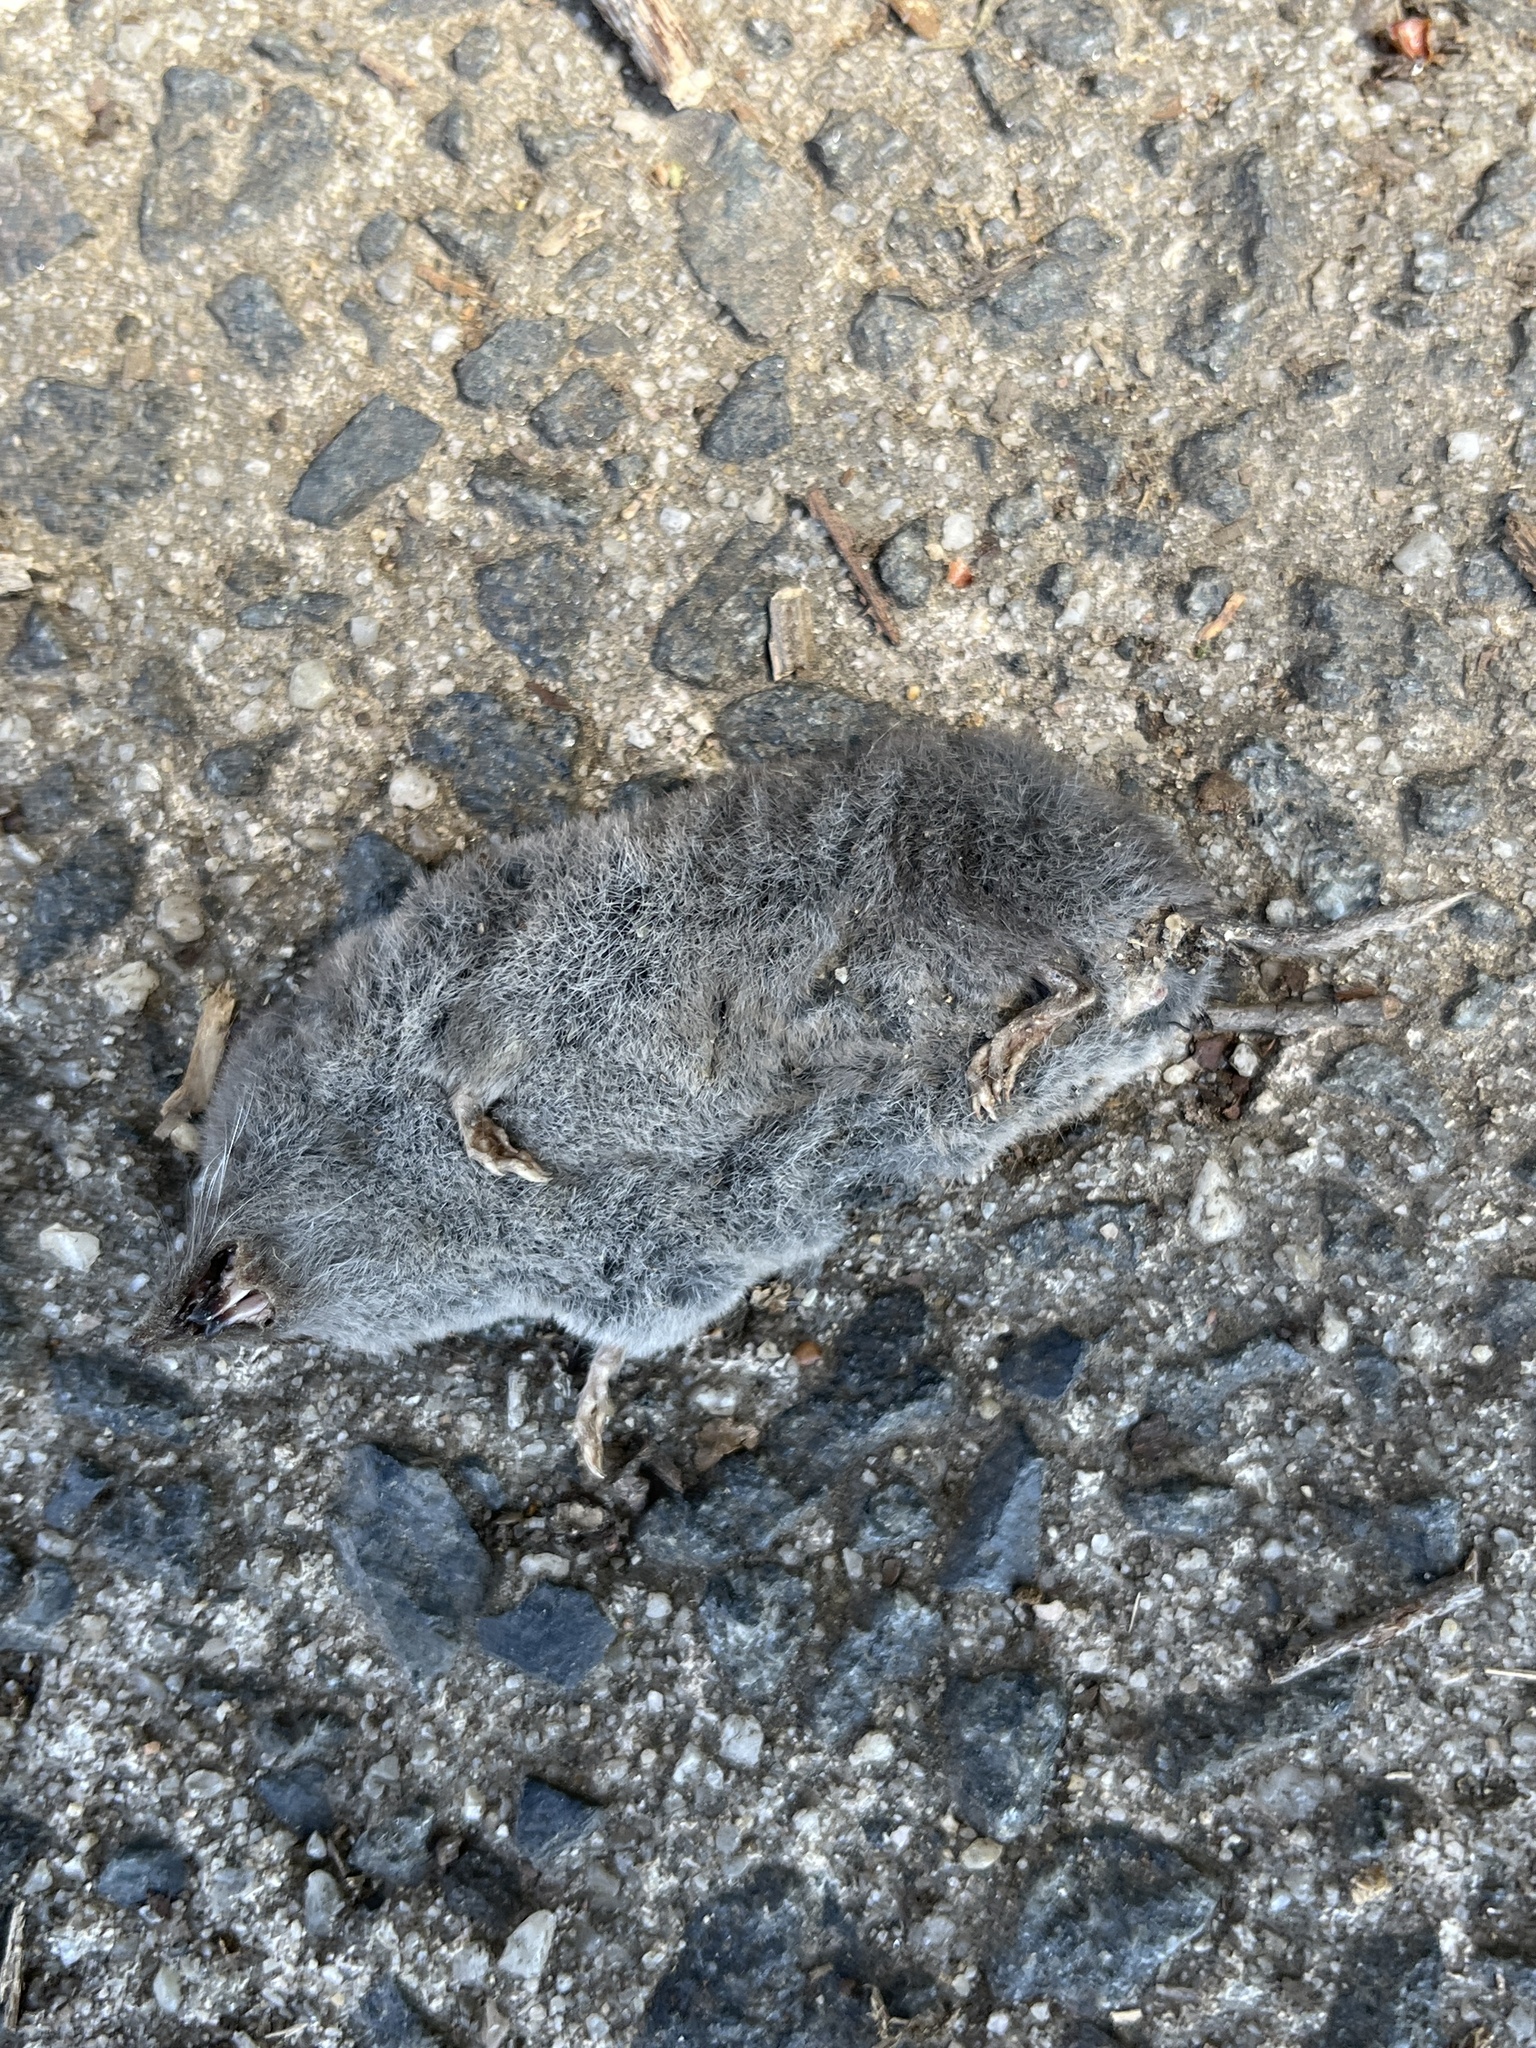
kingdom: Animalia
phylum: Chordata
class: Mammalia
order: Soricomorpha
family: Soricidae
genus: Blarina
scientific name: Blarina carolinensis
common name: Southern short-tailed shrew
